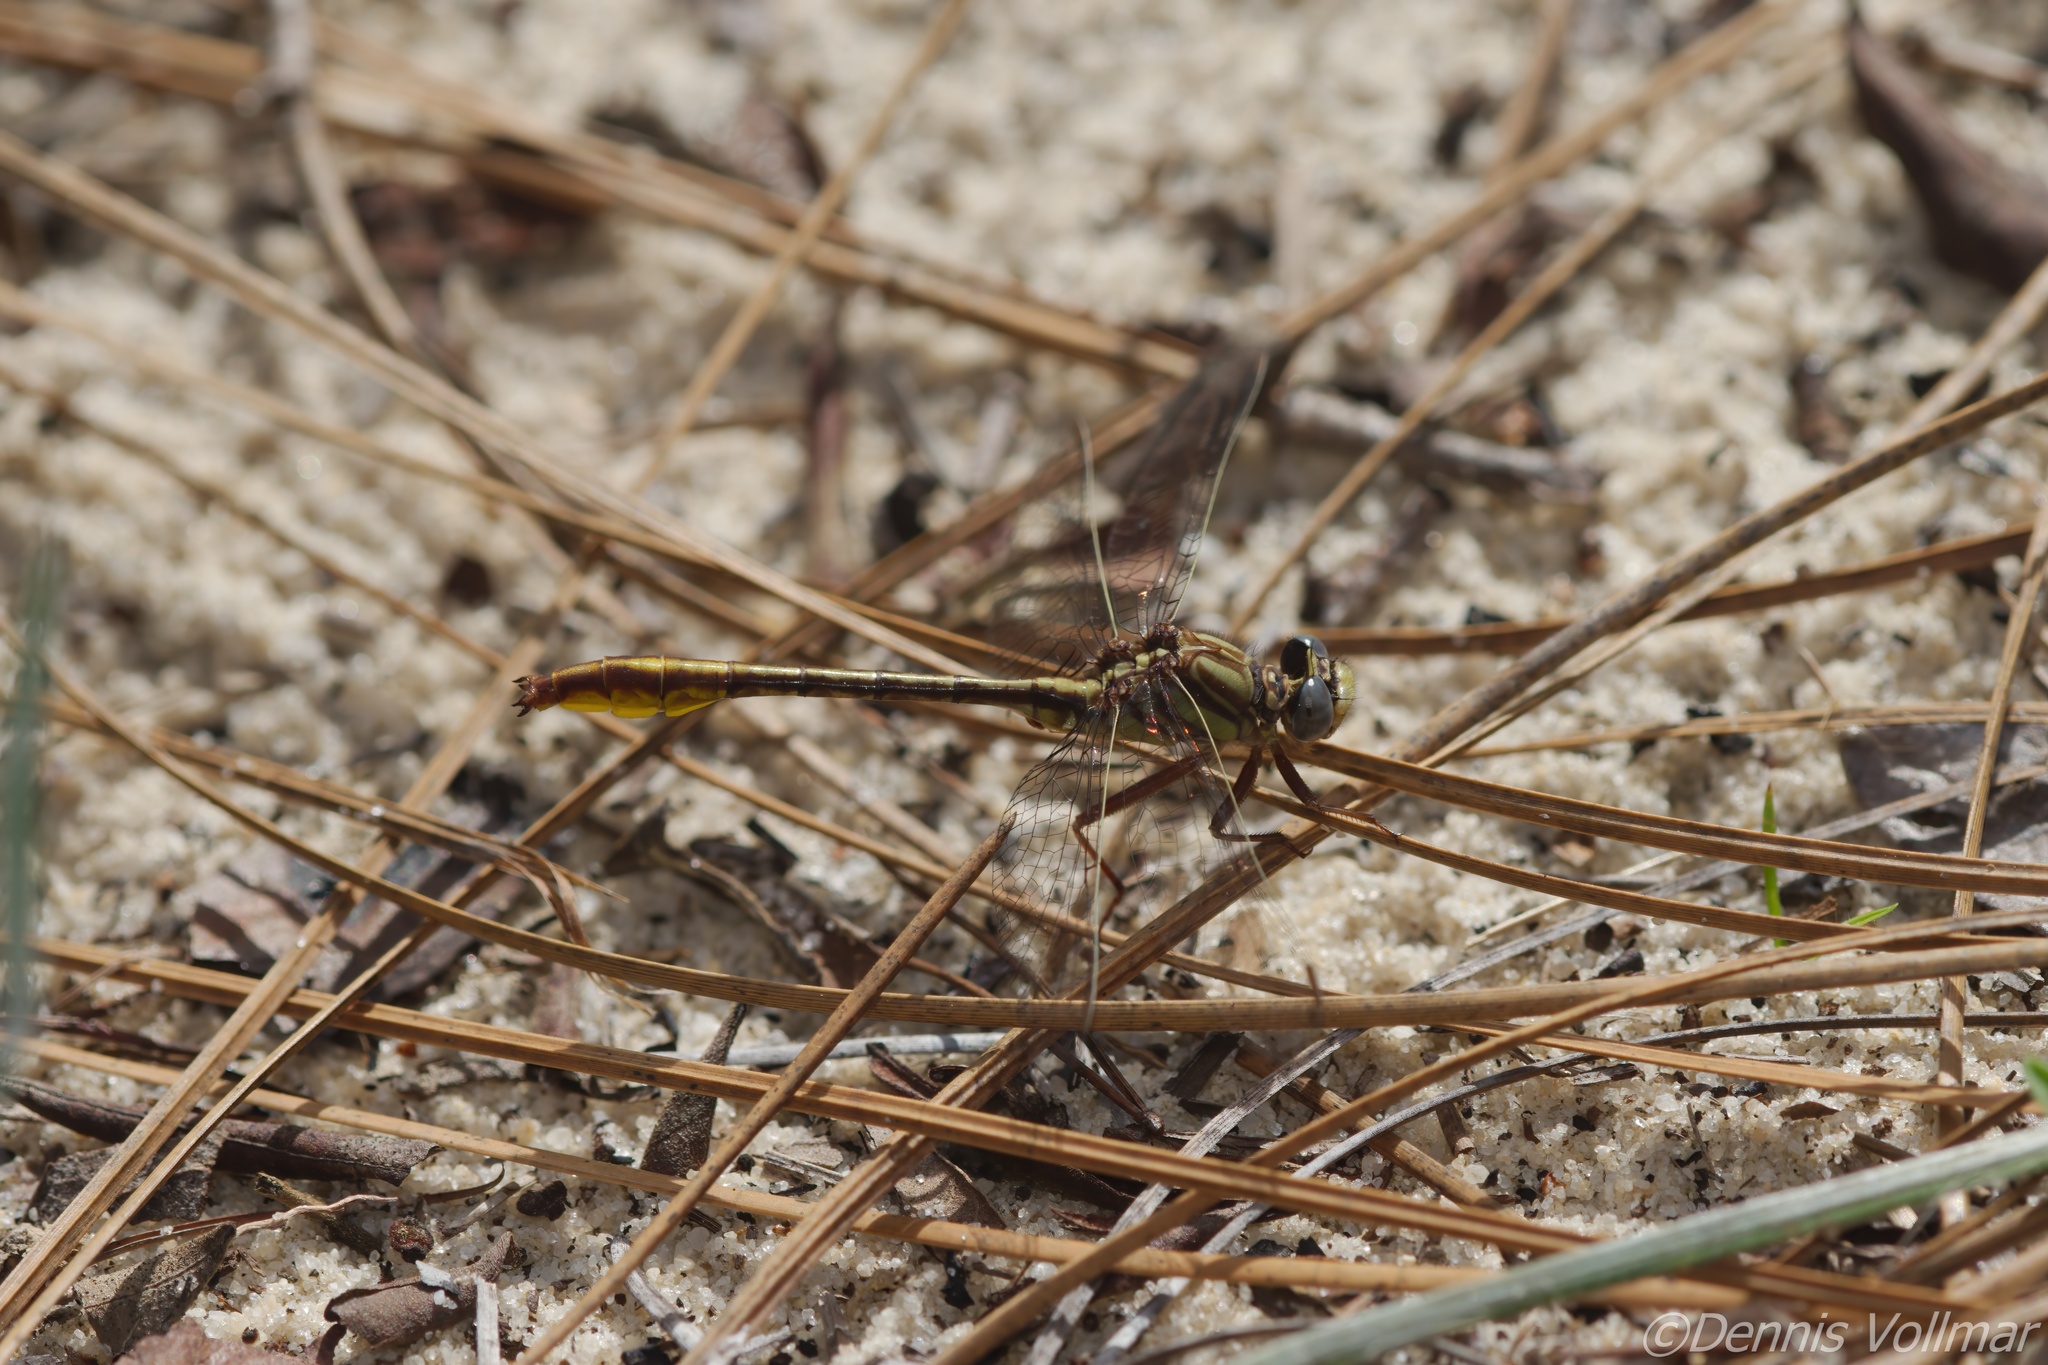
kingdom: Animalia
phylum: Arthropoda
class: Insecta
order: Odonata
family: Gomphidae
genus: Phanogomphus
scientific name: Phanogomphus cavillaris
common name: Sandhill clubtail
